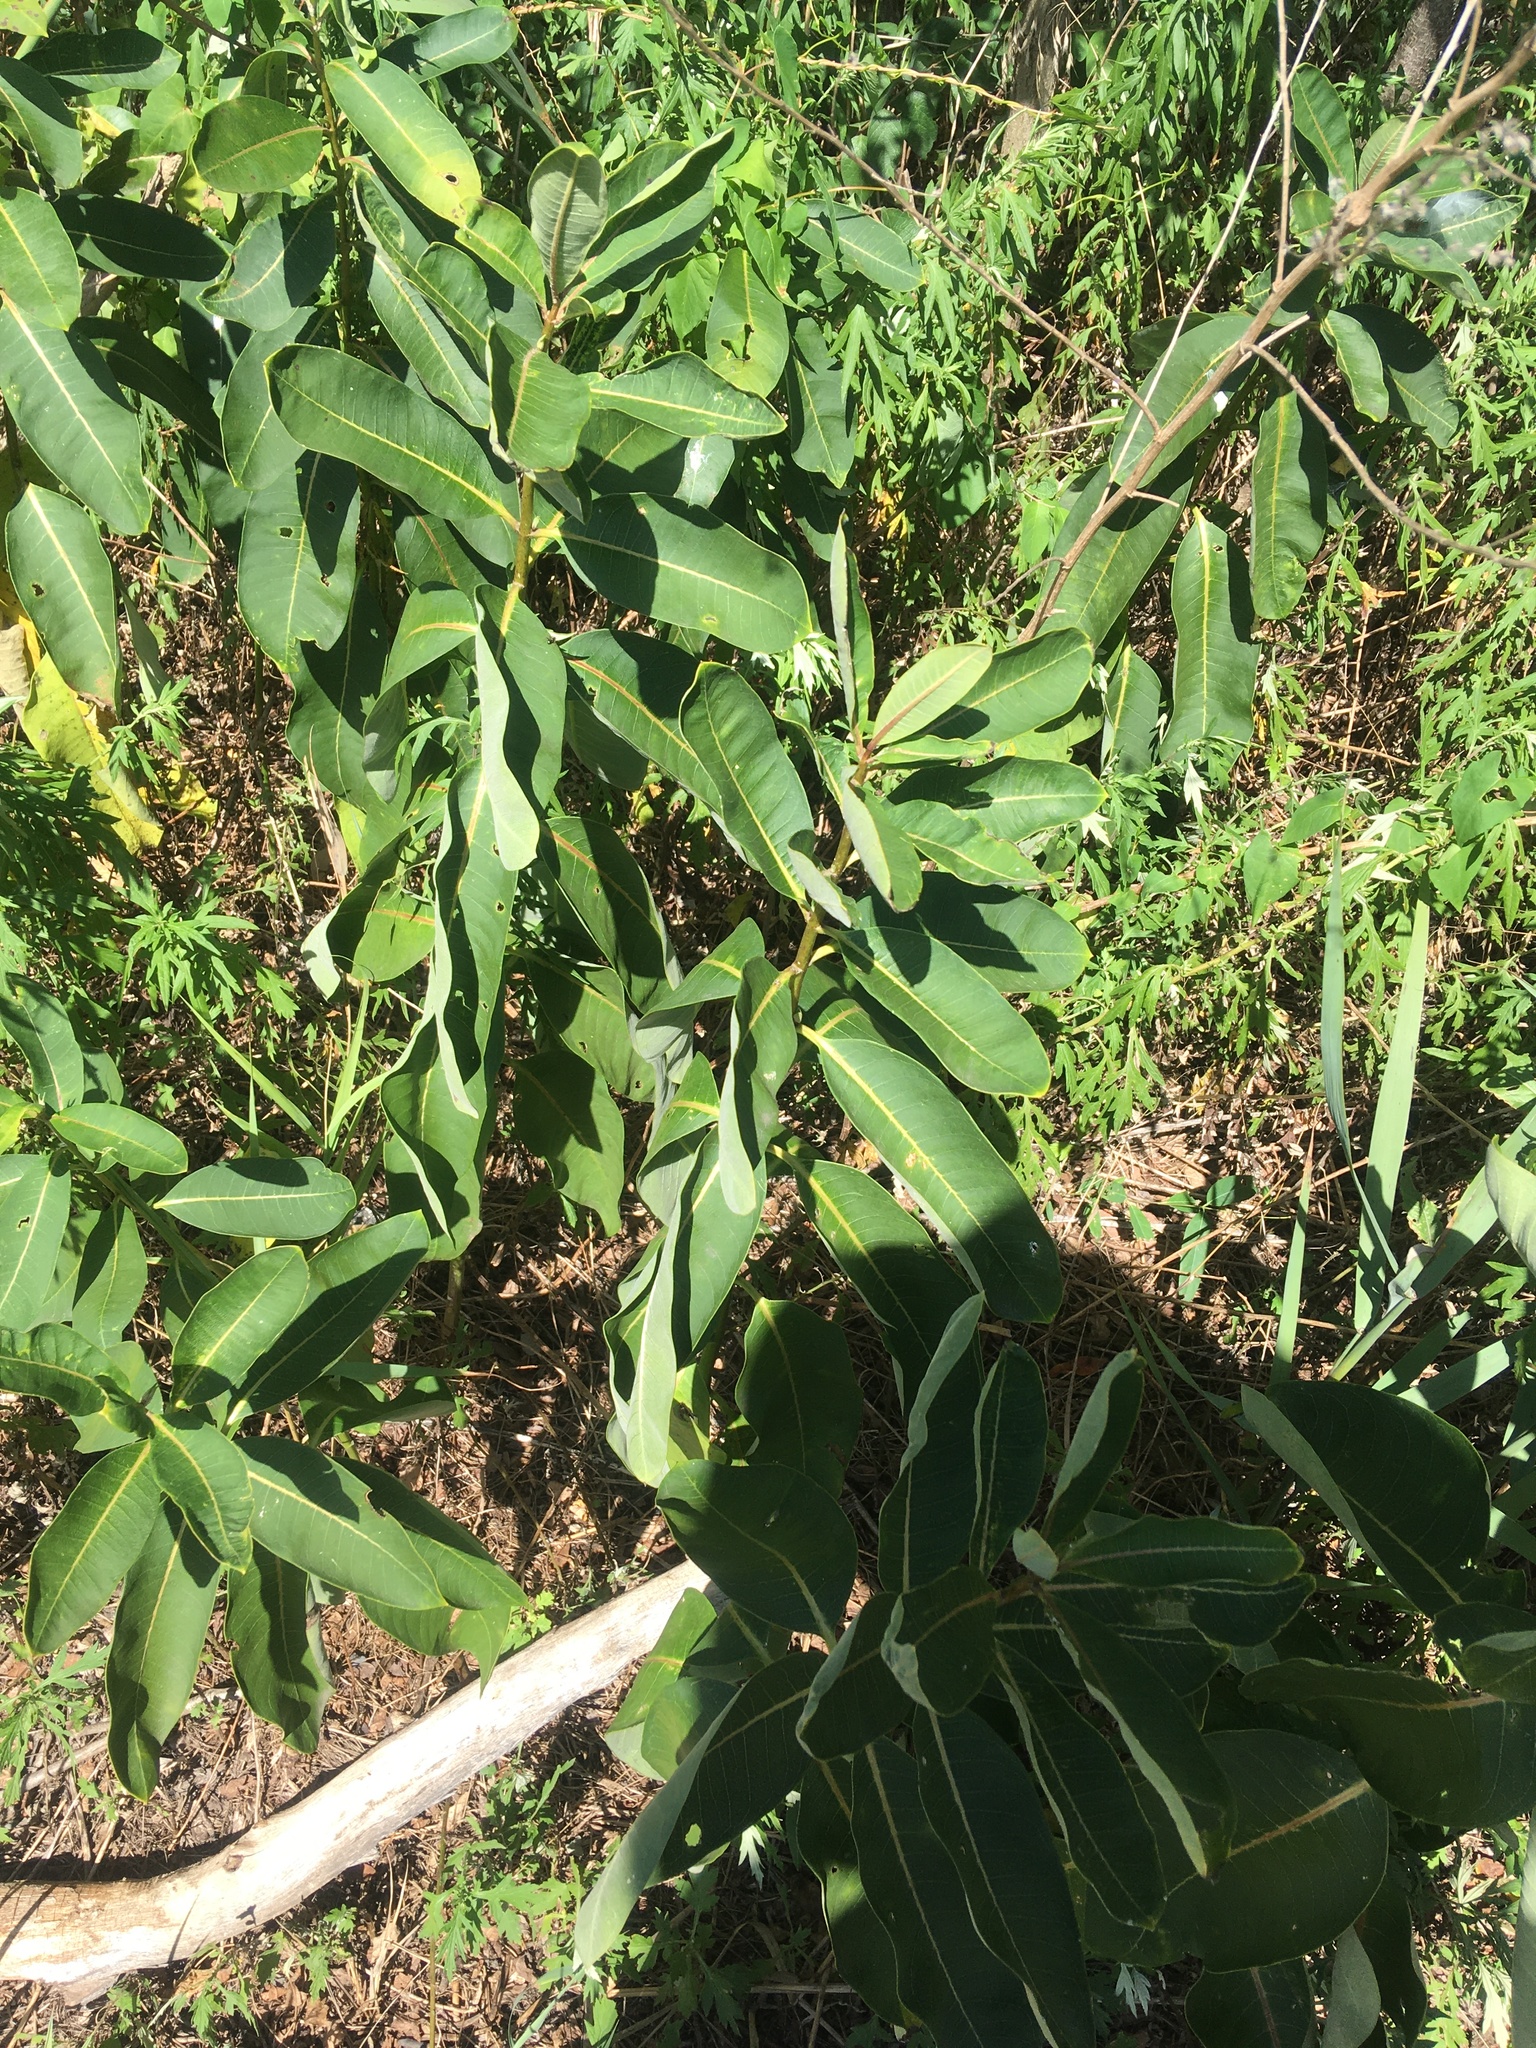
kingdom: Plantae
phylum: Tracheophyta
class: Magnoliopsida
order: Gentianales
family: Apocynaceae
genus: Asclepias
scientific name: Asclepias syriaca
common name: Common milkweed
